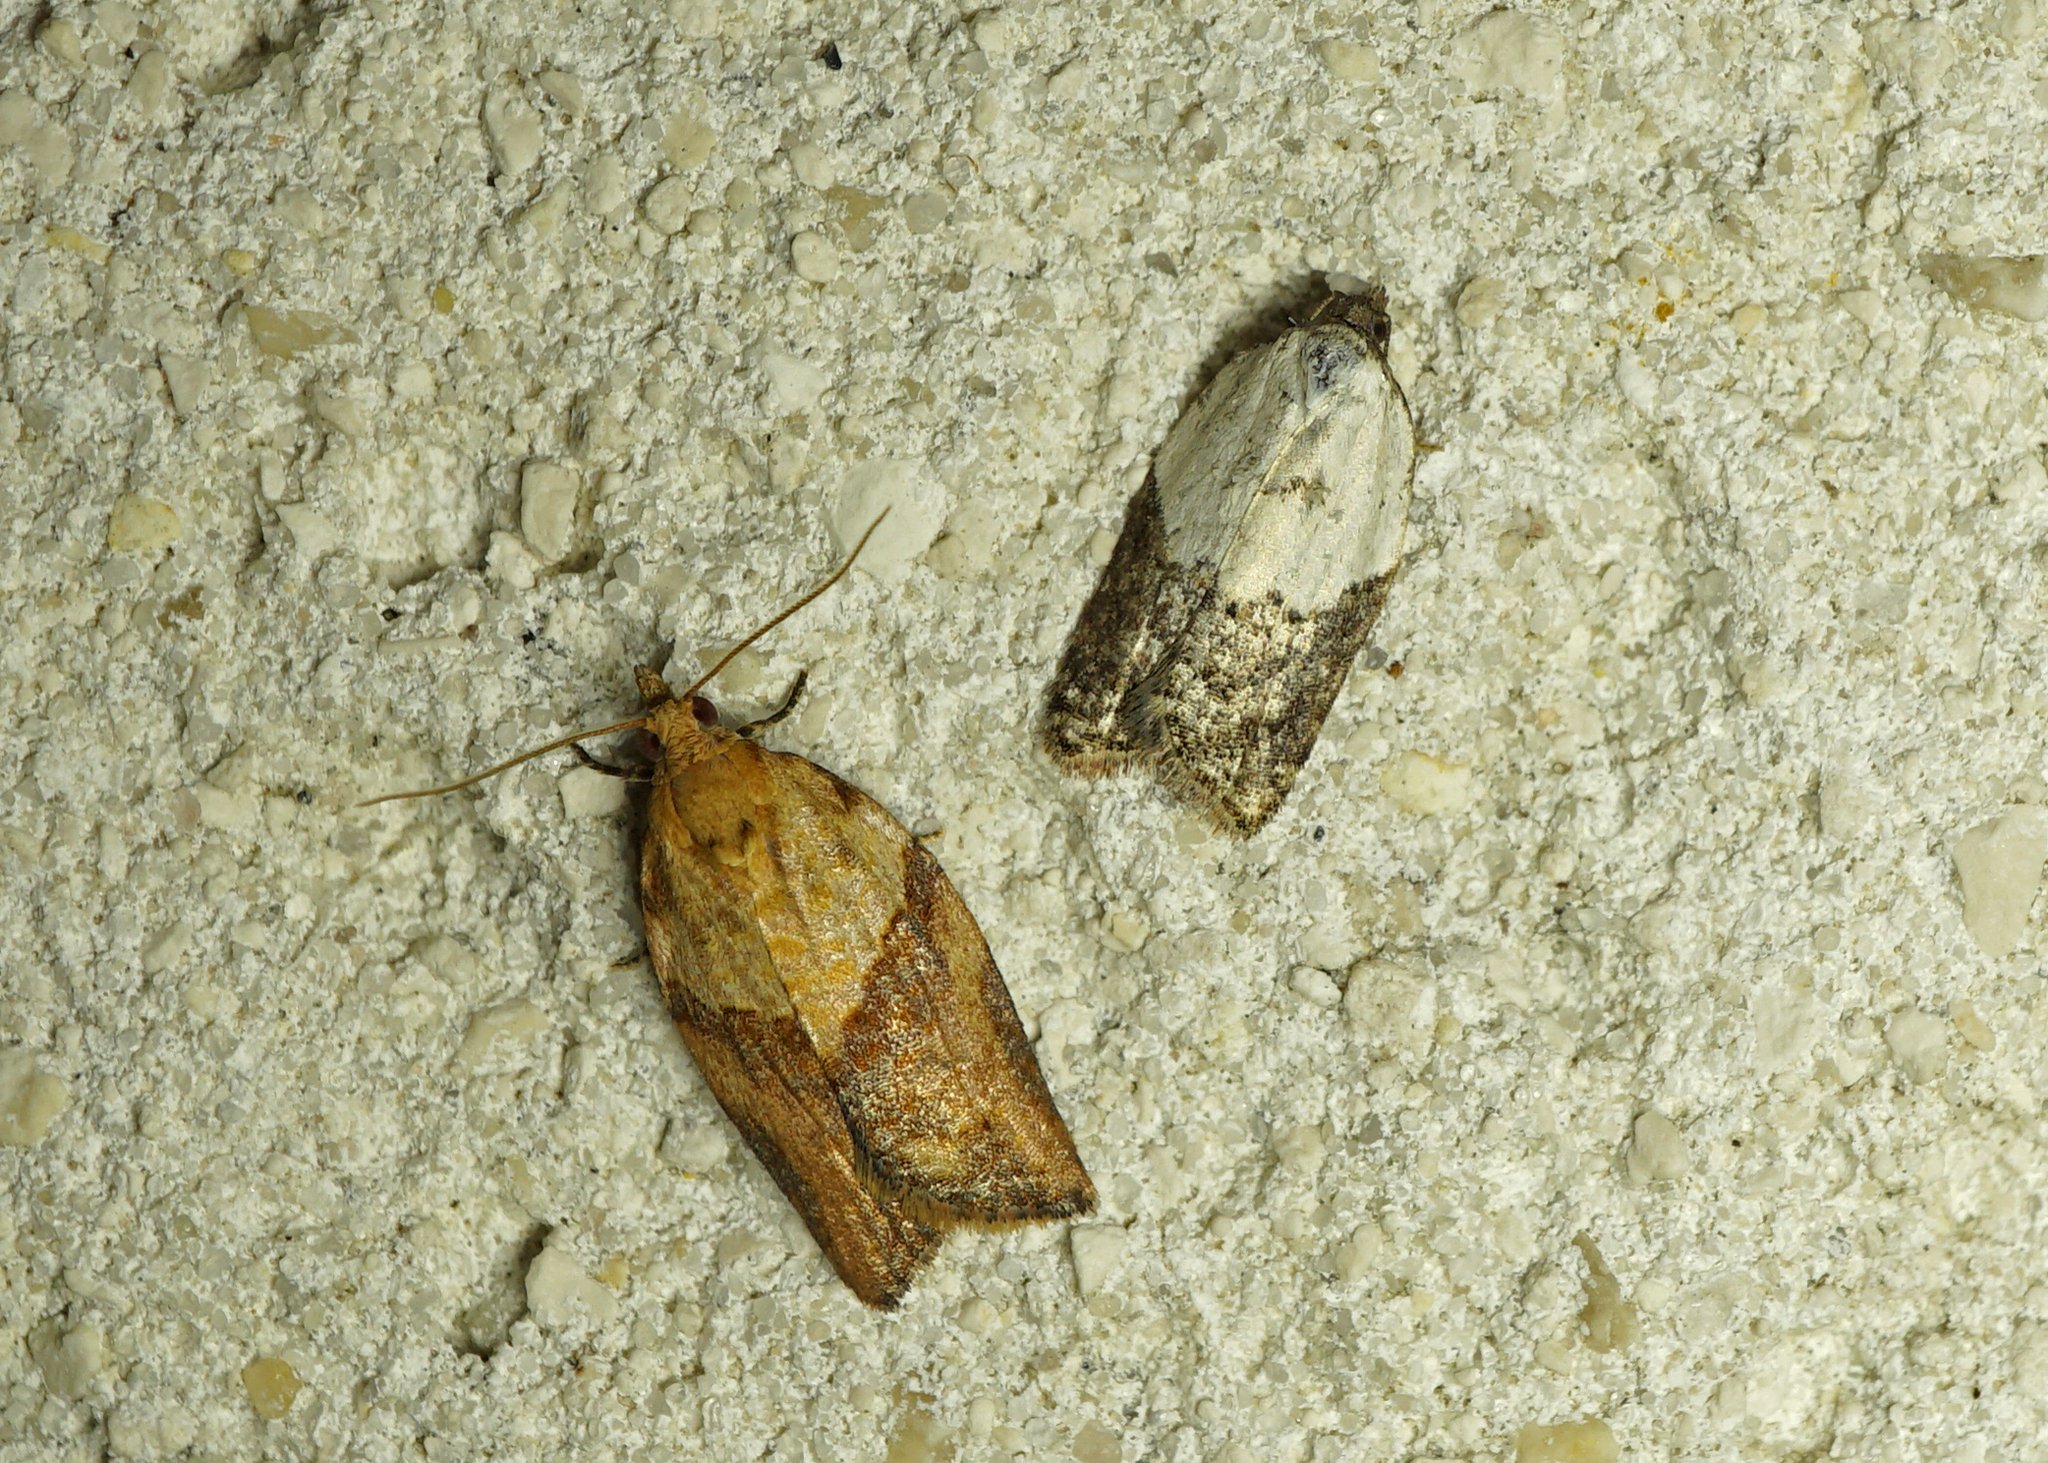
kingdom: Animalia
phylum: Arthropoda
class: Insecta
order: Lepidoptera
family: Tortricidae
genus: Acleris
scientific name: Acleris variegana
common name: Garden rose tortrix
